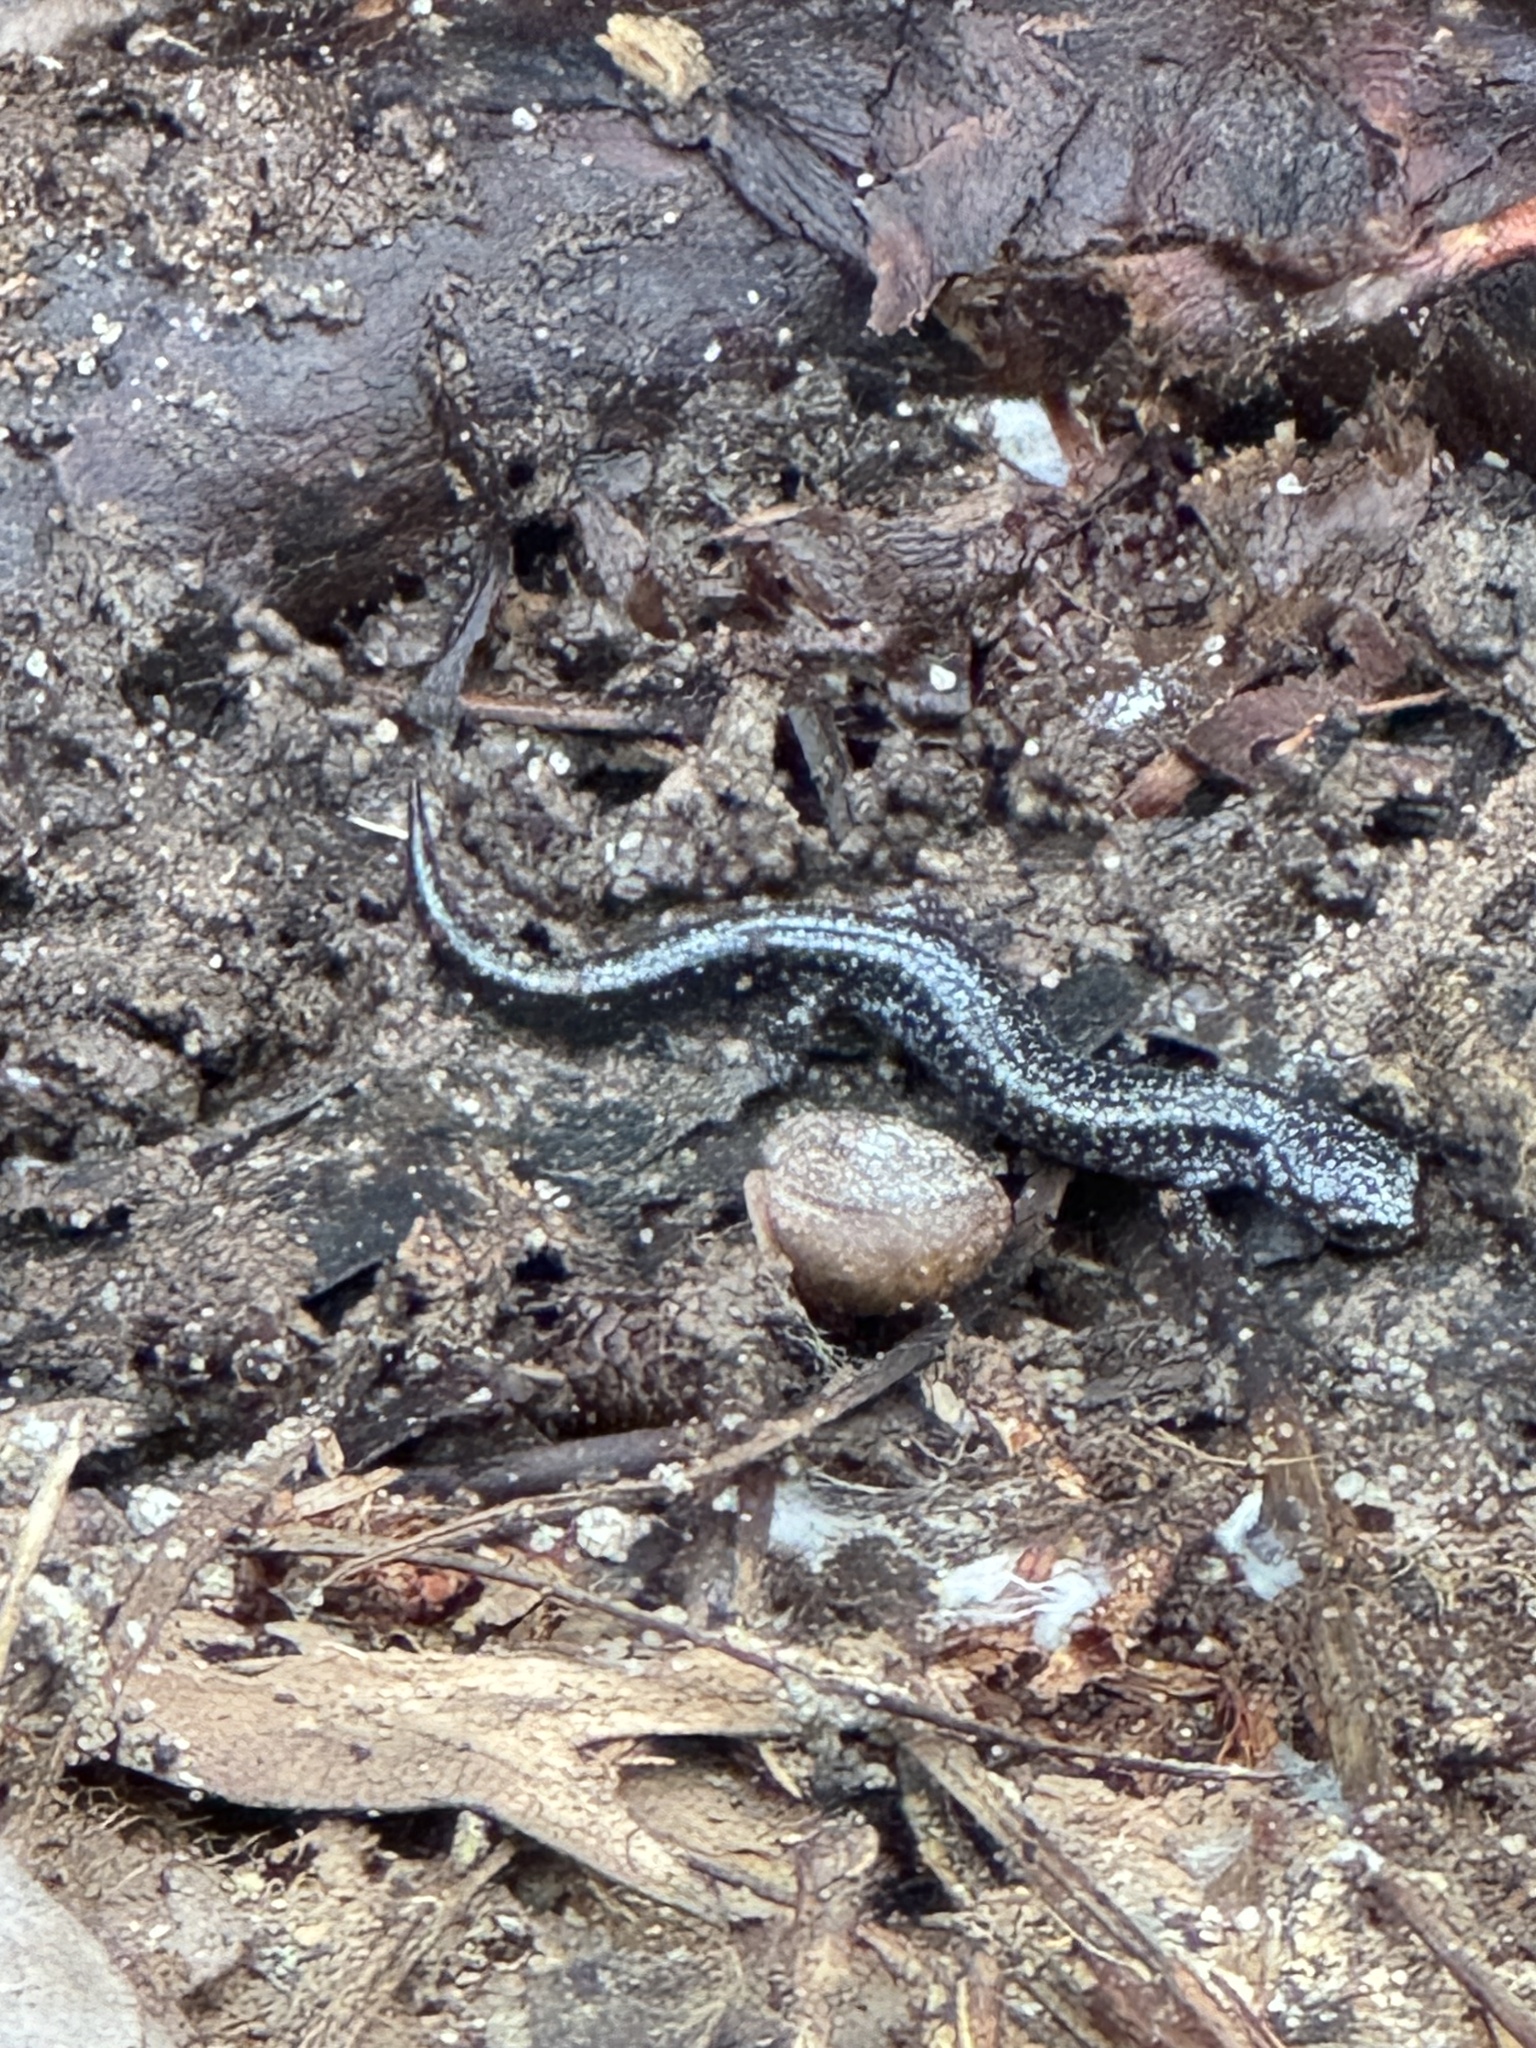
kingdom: Animalia
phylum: Chordata
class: Amphibia
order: Caudata
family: Plethodontidae
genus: Plethodon
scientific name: Plethodon cinereus
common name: Redback salamander
